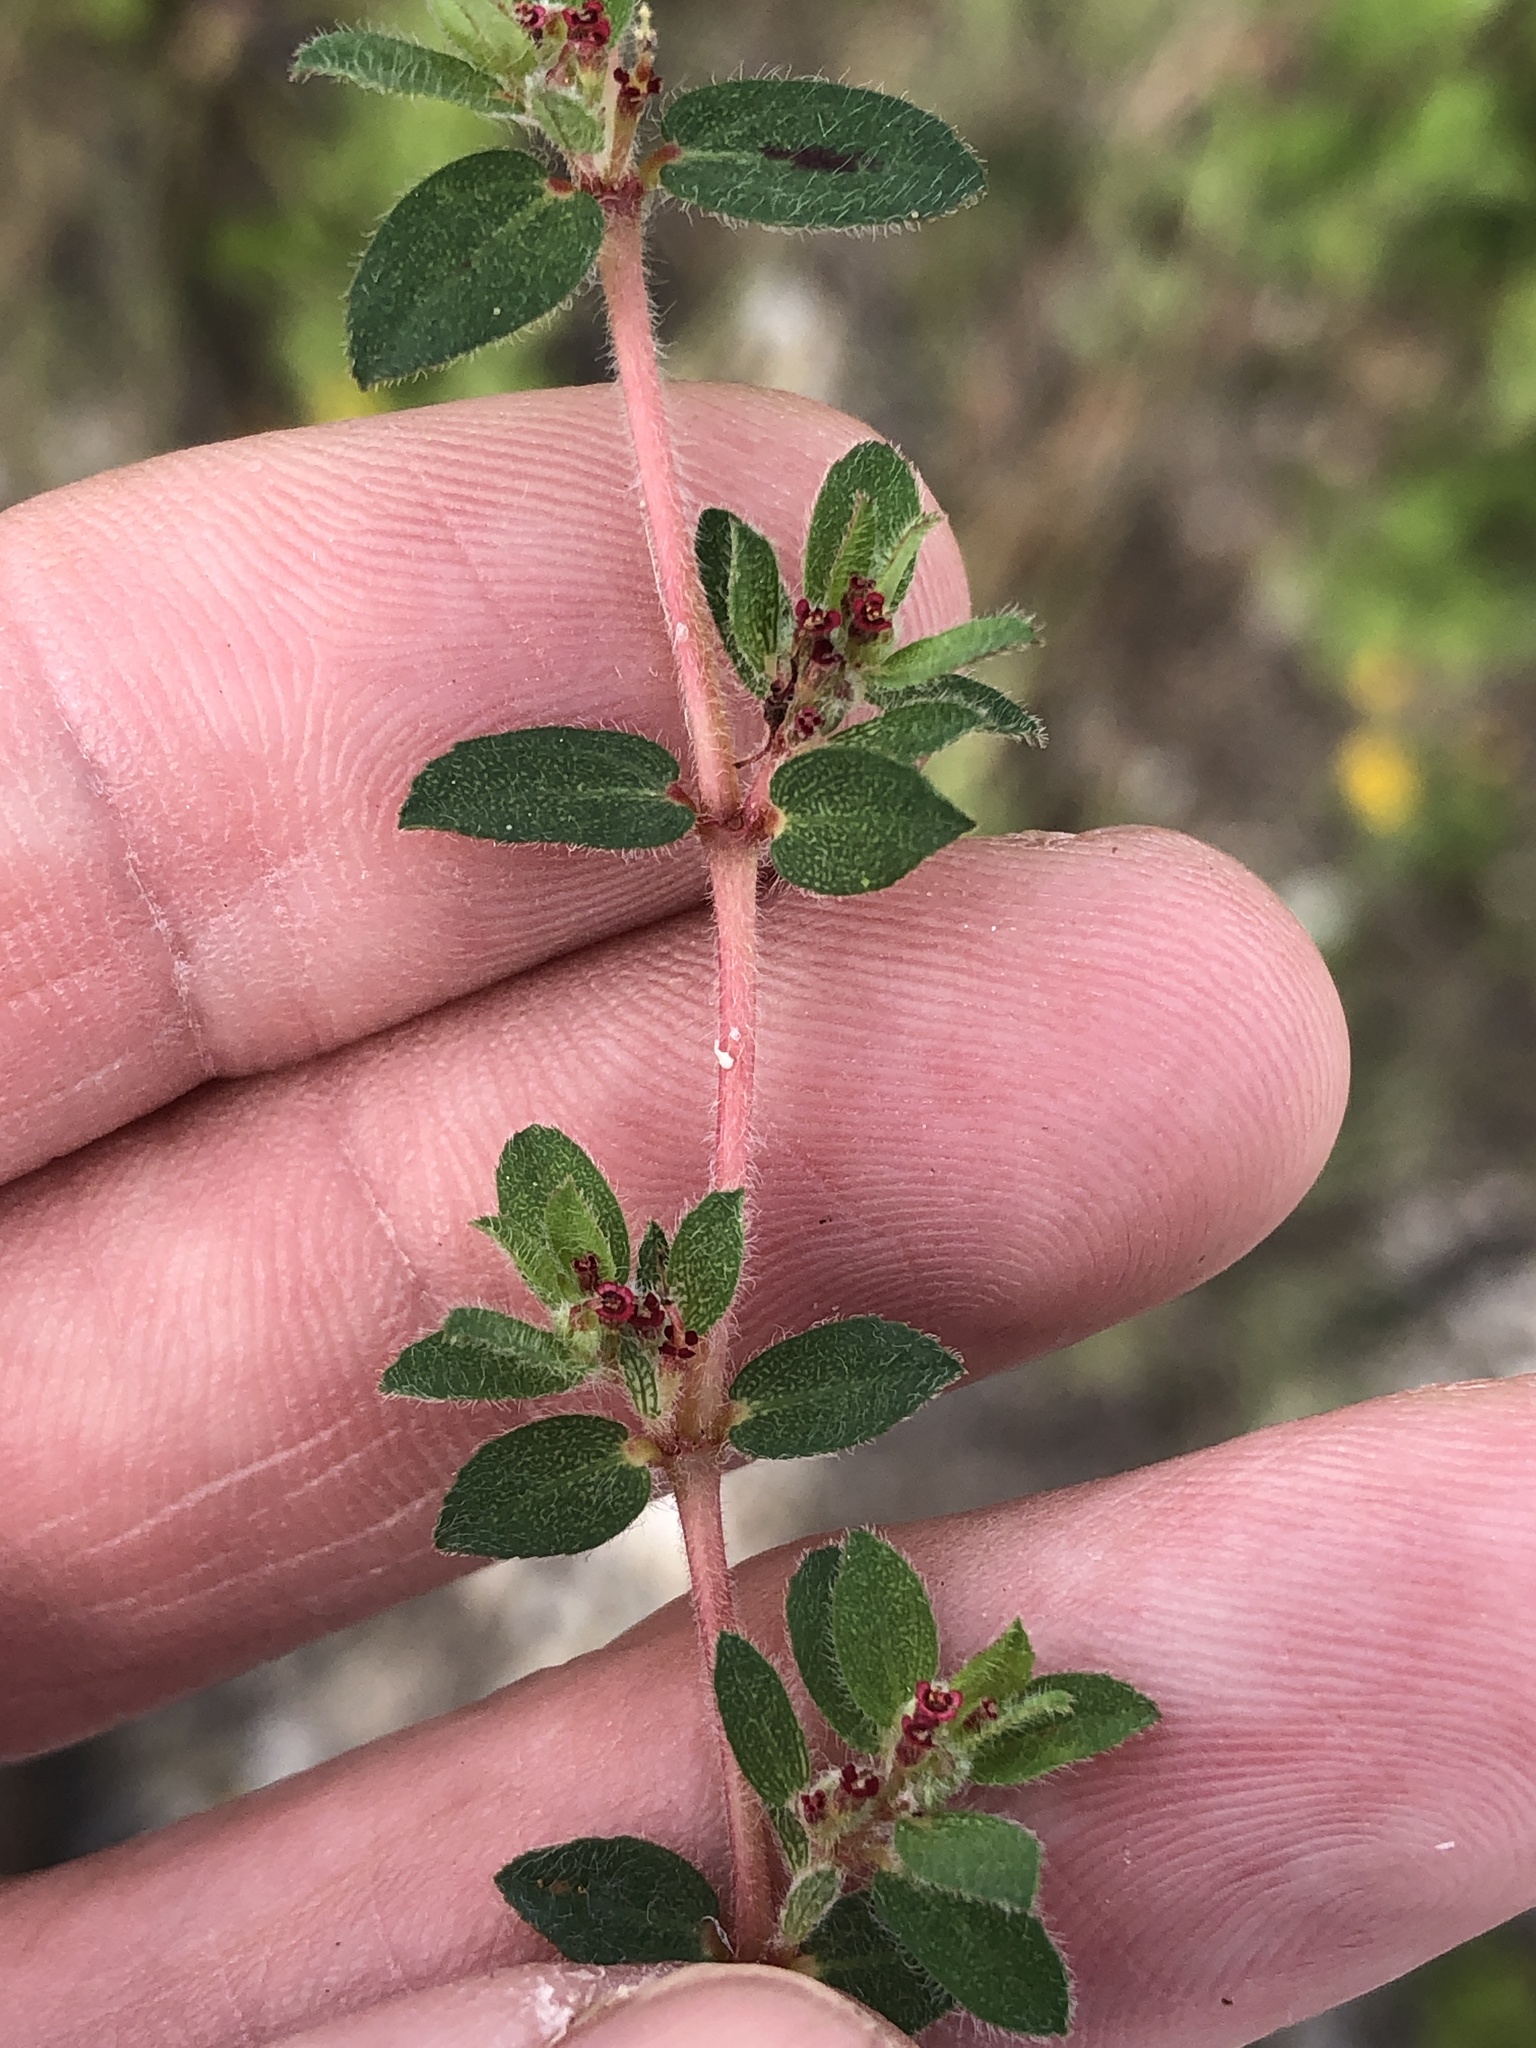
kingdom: Plantae
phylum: Tracheophyta
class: Magnoliopsida
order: Malpighiales
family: Euphorbiaceae
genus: Euphorbia
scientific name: Euphorbia velleriflora
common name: Caliche sandmat
